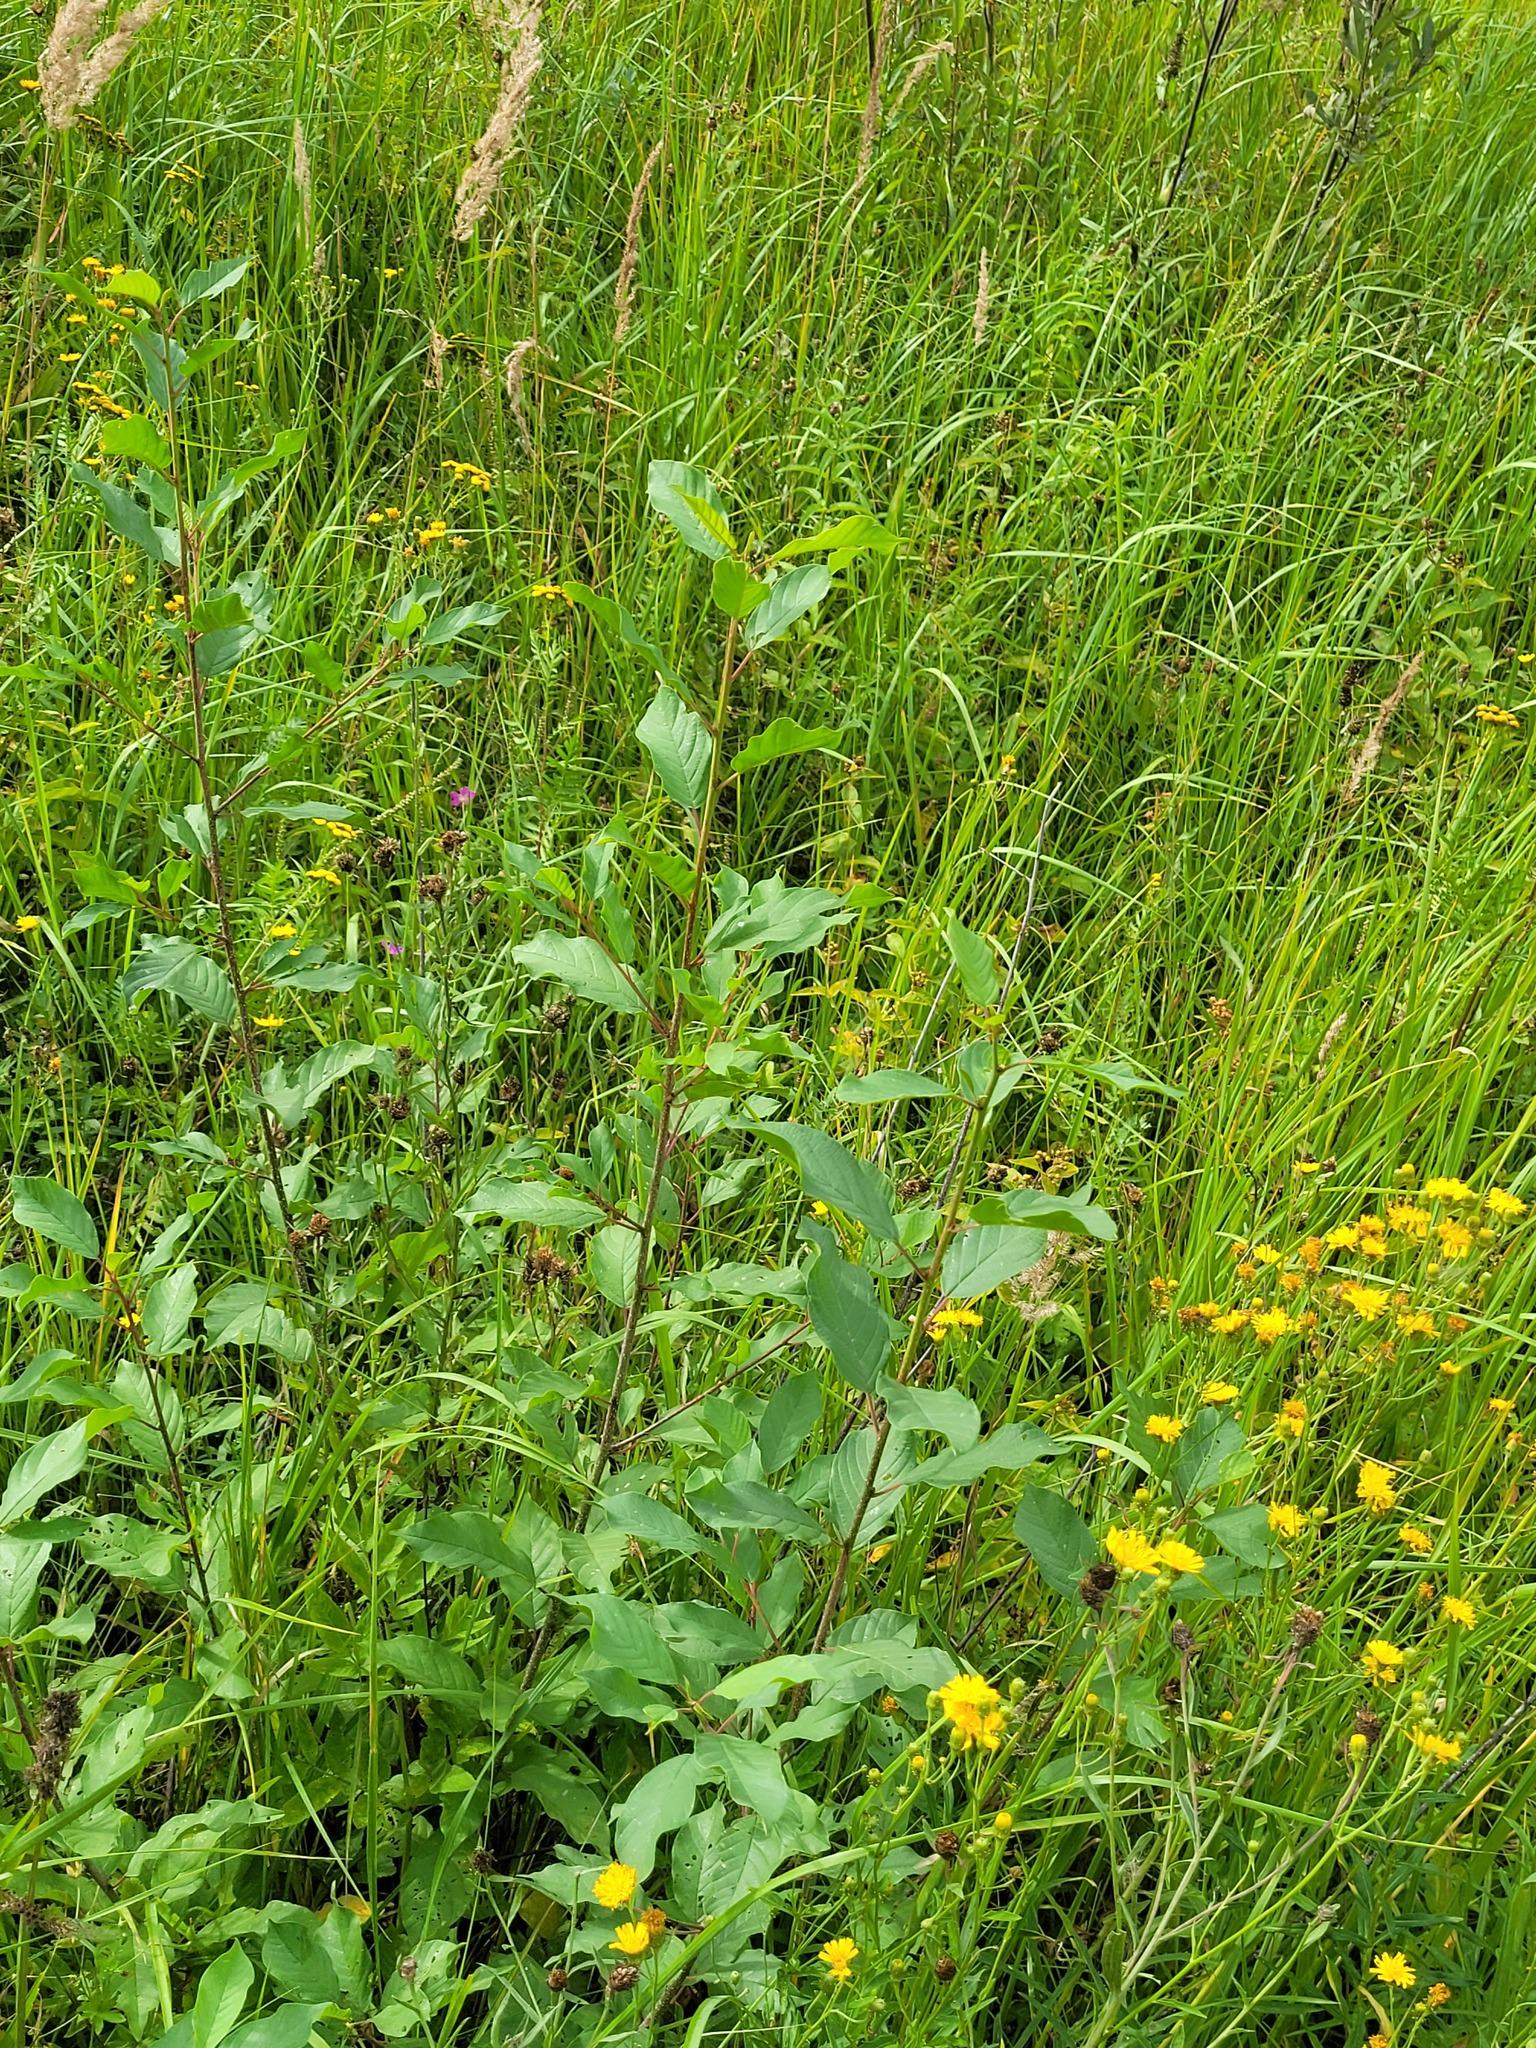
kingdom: Plantae
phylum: Tracheophyta
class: Magnoliopsida
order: Rosales
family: Rhamnaceae
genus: Frangula
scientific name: Frangula alnus
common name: Alder buckthorn
